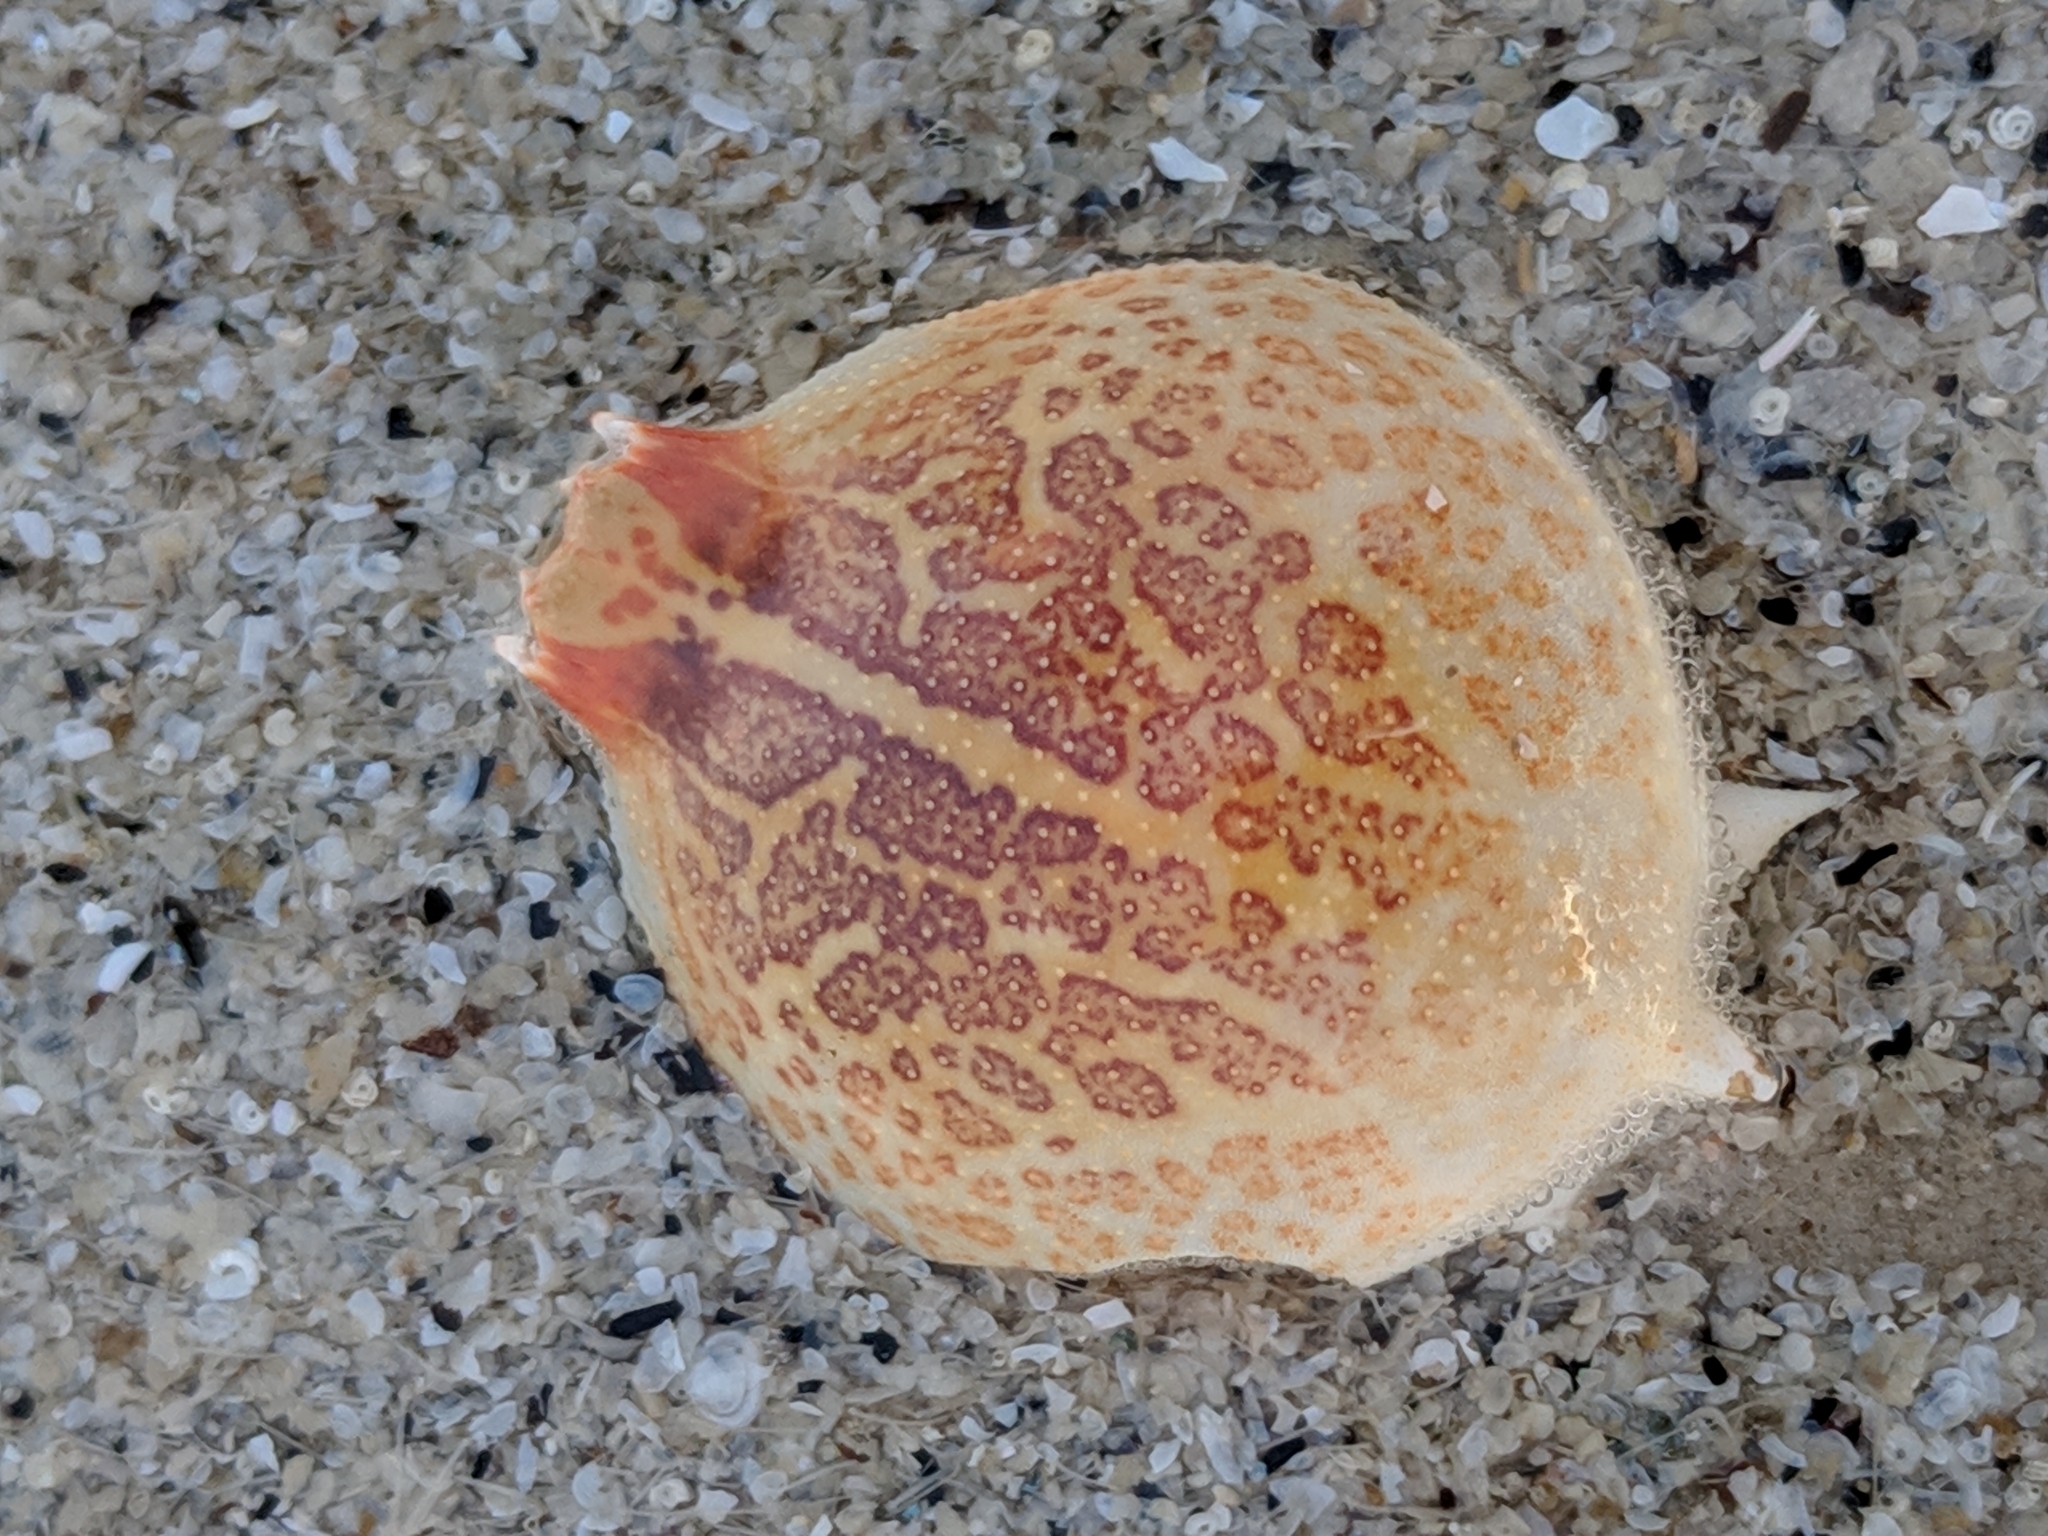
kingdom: Animalia
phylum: Arthropoda
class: Malacostraca
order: Decapoda
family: Leucosiidae
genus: Persephona
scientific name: Persephona aquilonaris
